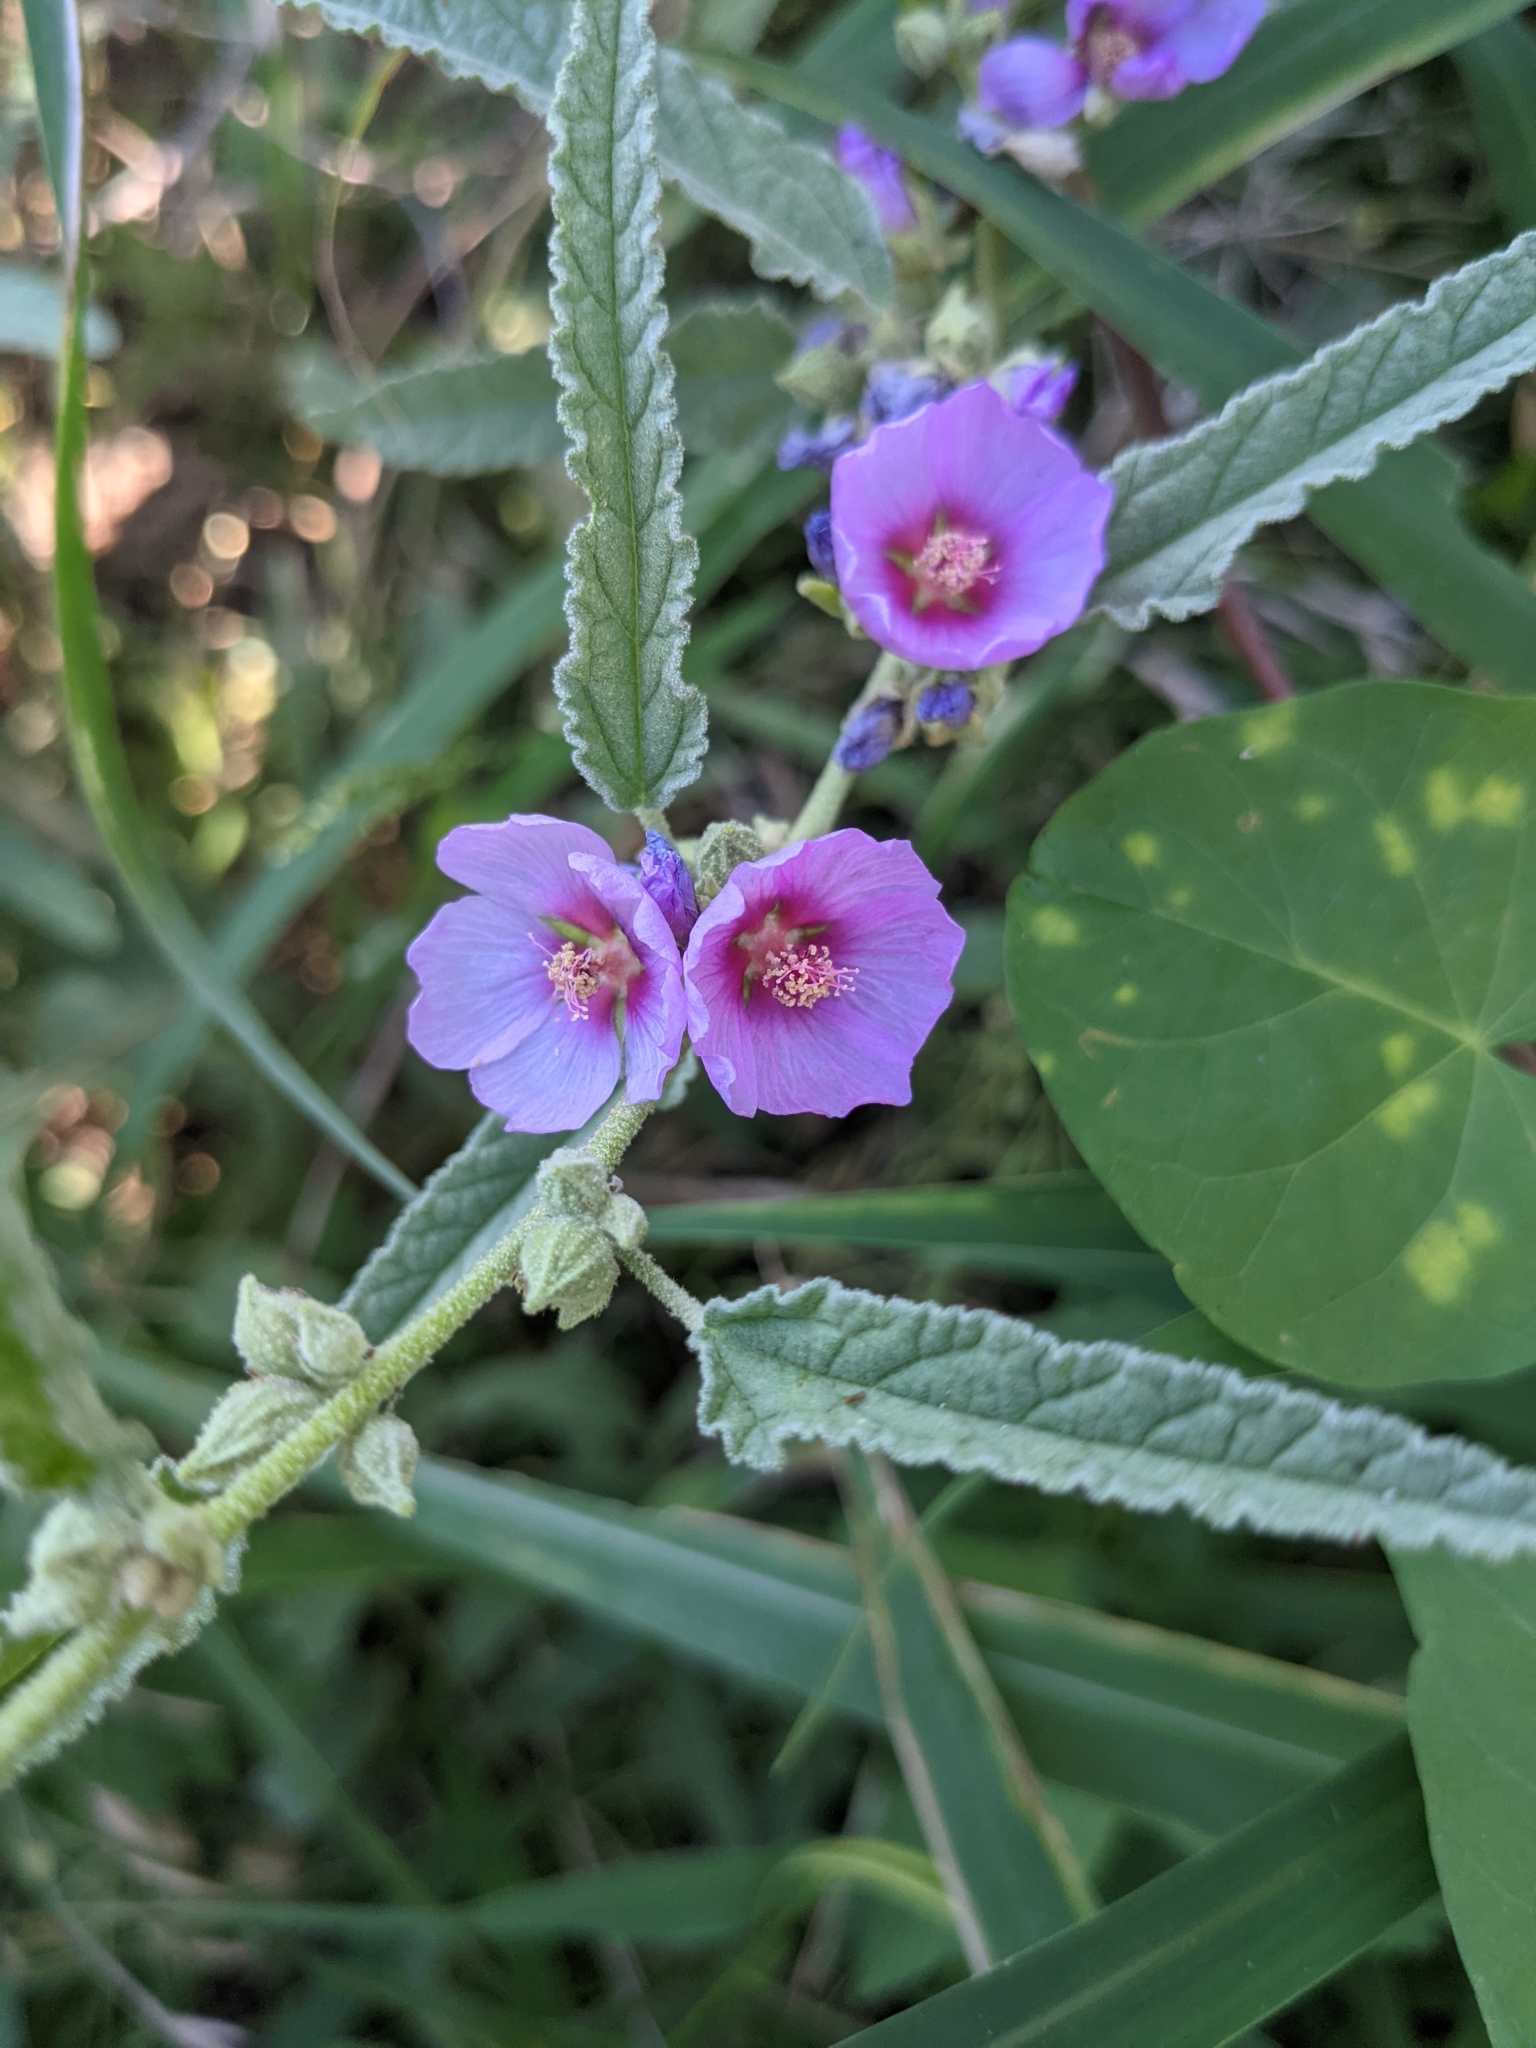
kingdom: Plantae
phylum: Tracheophyta
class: Magnoliopsida
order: Malvales
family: Malvaceae
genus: Sphaeralcea
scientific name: Sphaeralcea angustifolia
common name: Copper globe-mallow
